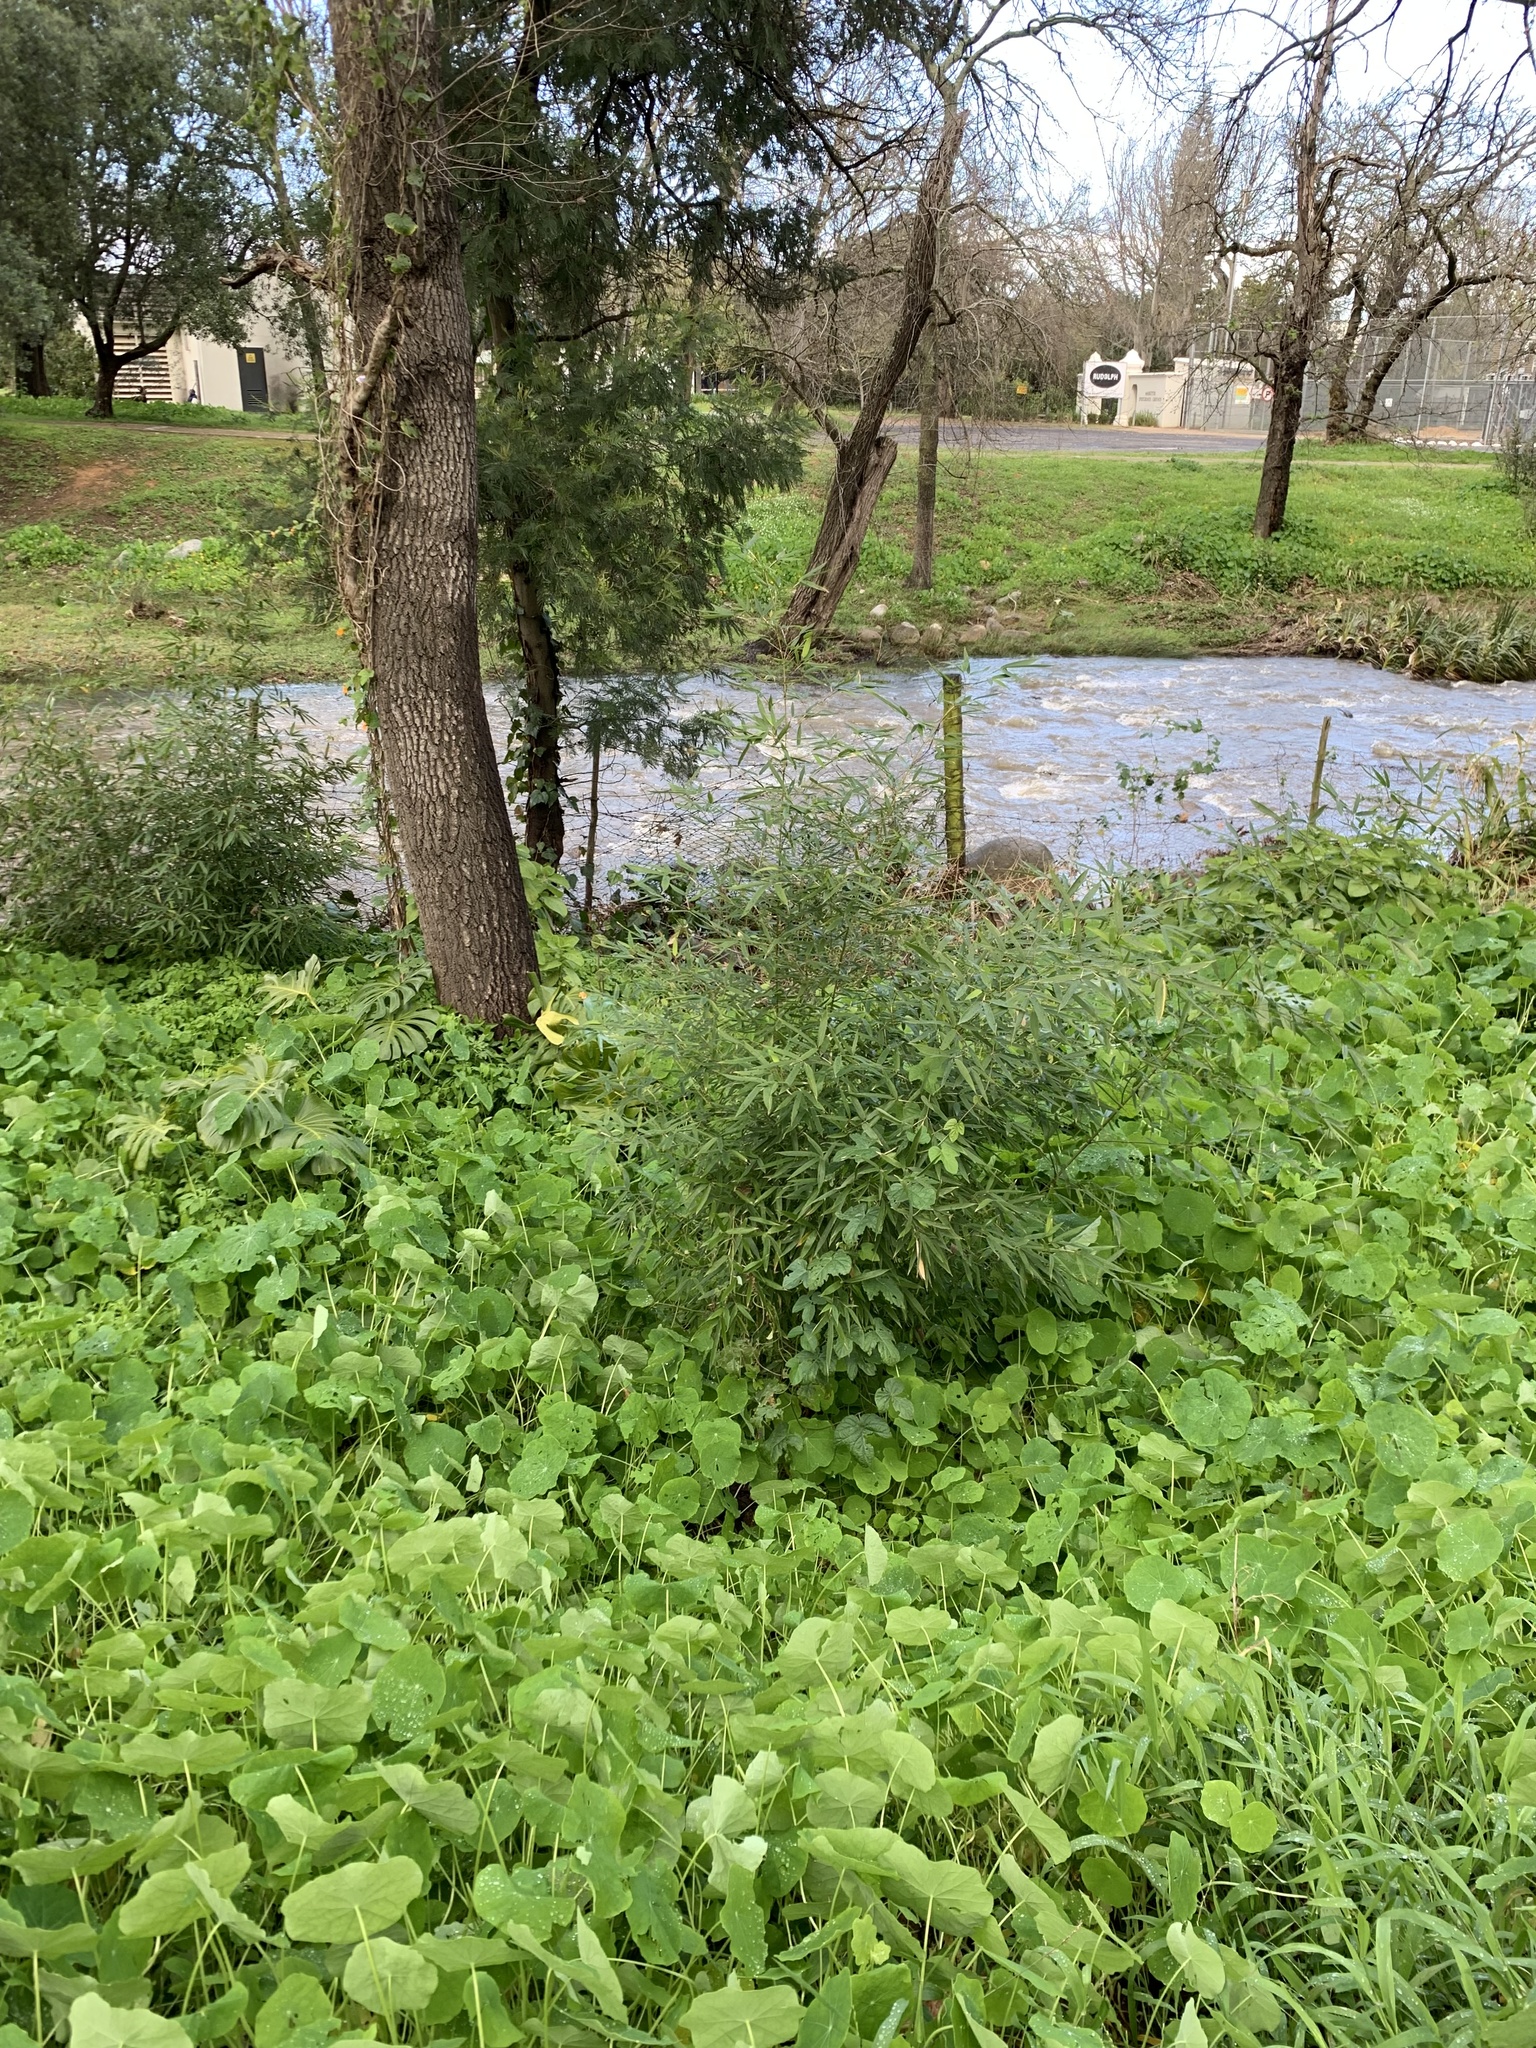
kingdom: Plantae
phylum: Tracheophyta
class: Liliopsida
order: Poales
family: Poaceae
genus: Phyllostachys
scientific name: Phyllostachys aurea
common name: Golden bamboo
